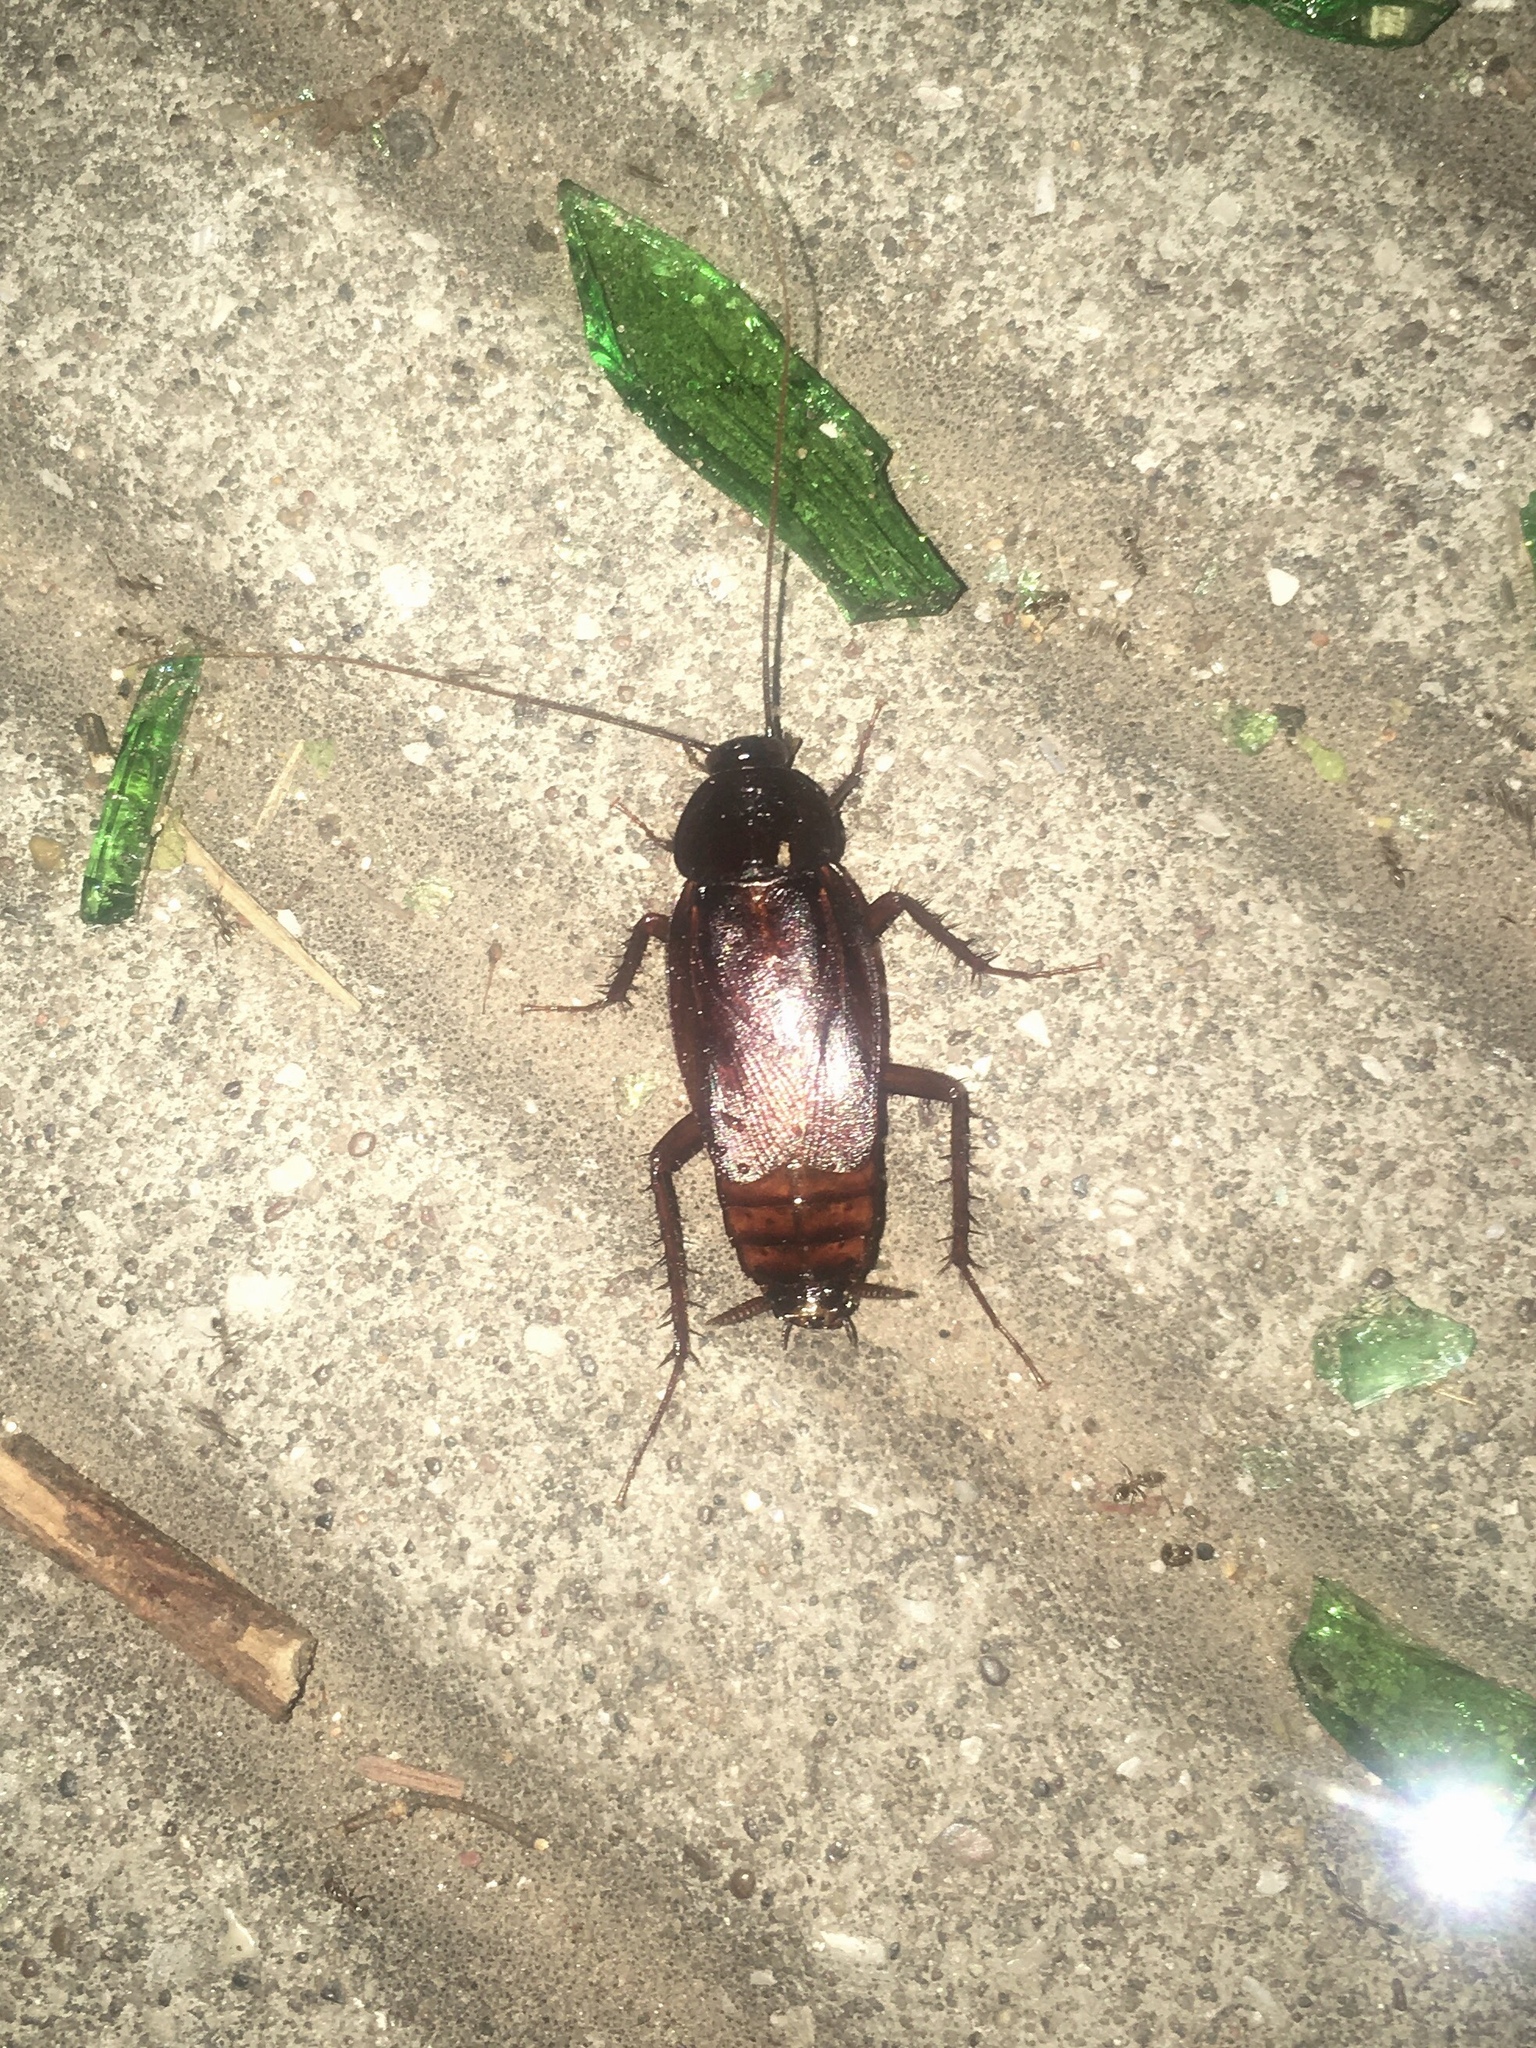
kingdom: Animalia
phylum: Arthropoda
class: Insecta
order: Blattodea
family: Blattidae
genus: Periplaneta
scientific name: Periplaneta fuliginosa
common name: Smokeybrown cockroad
